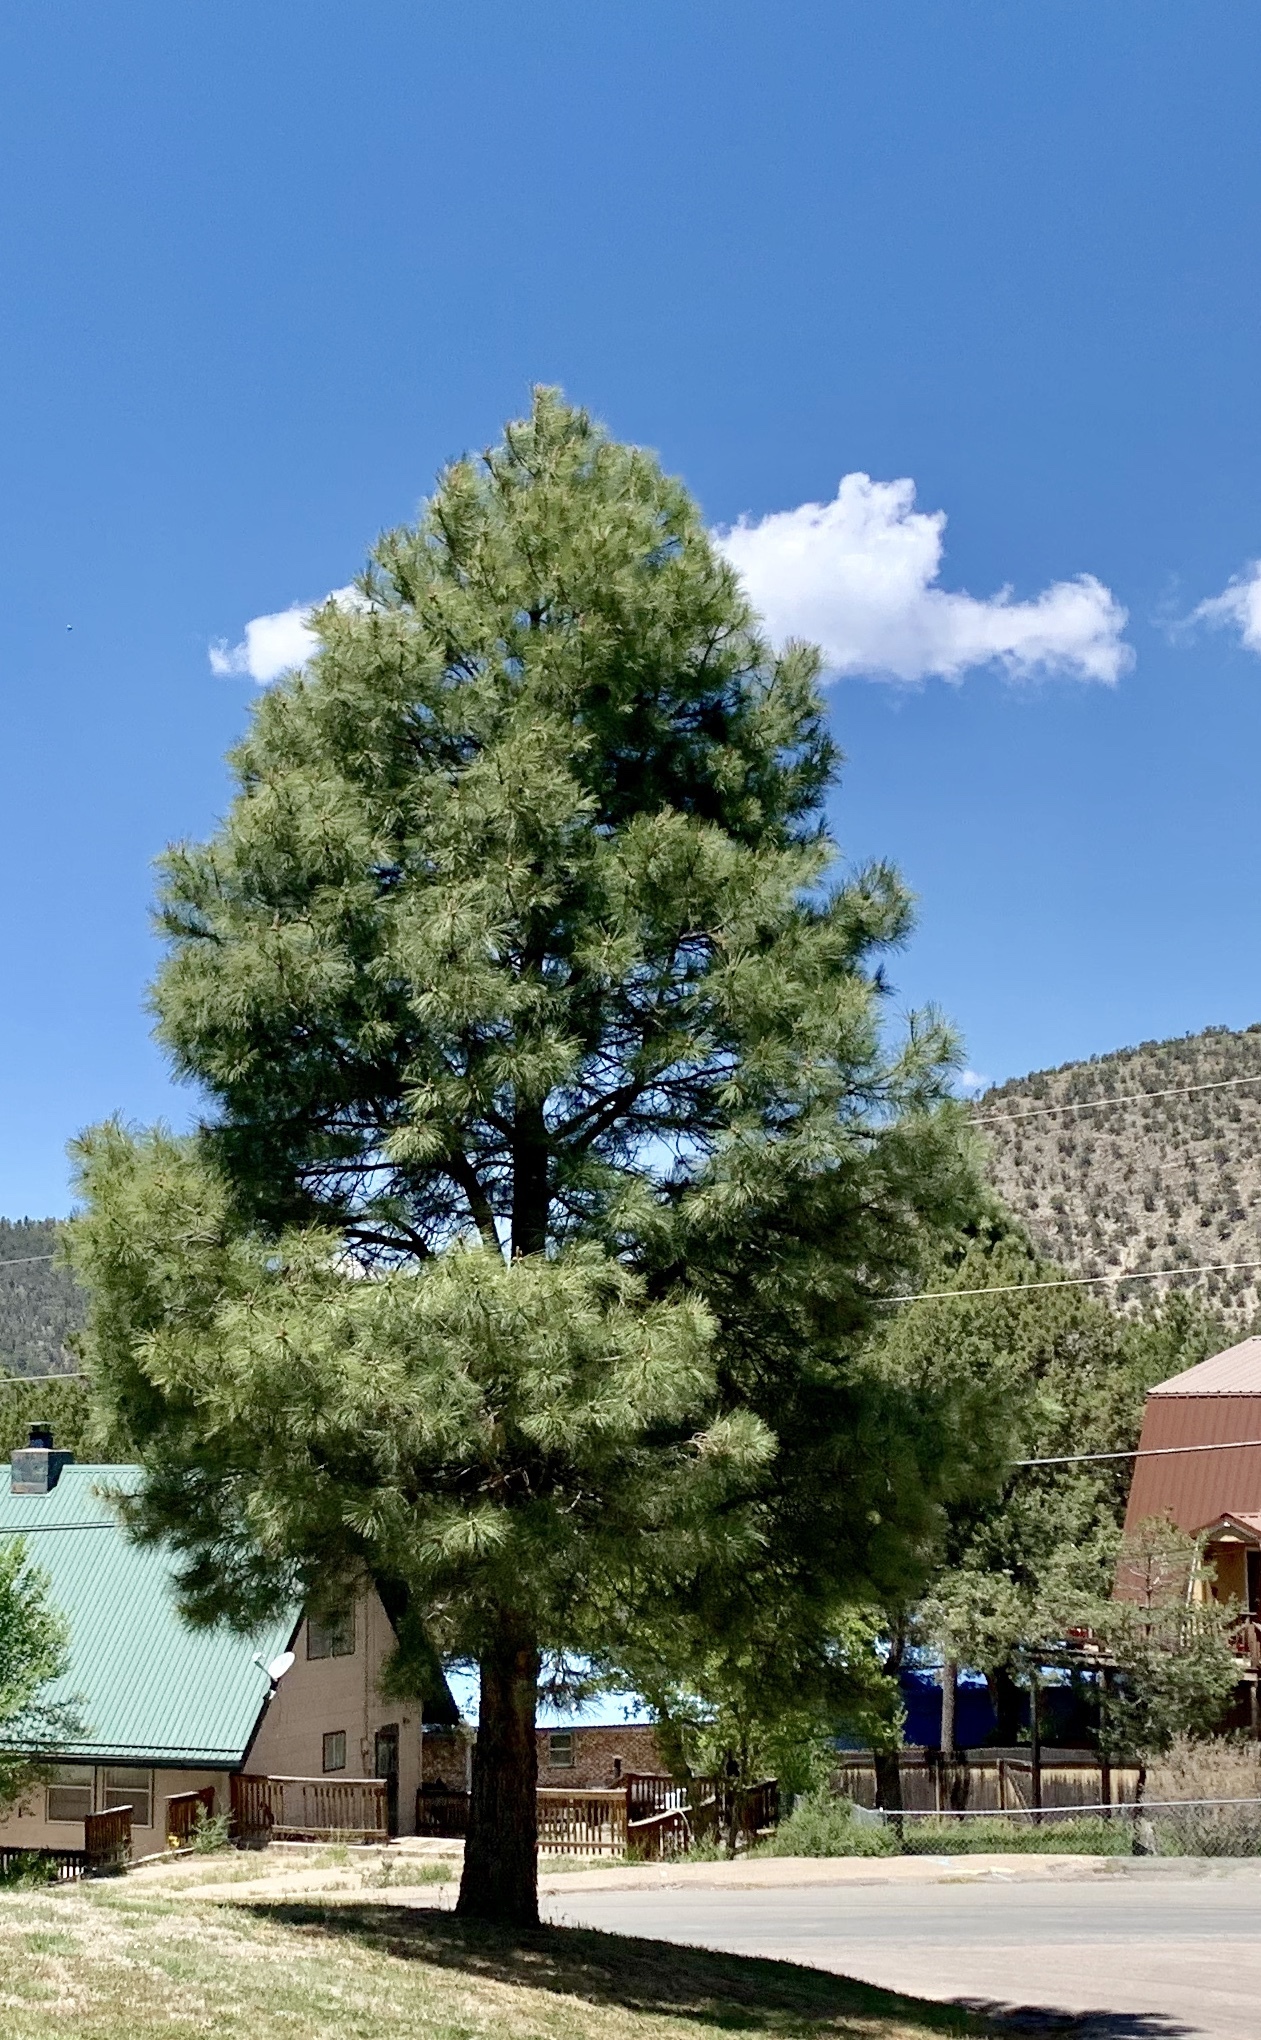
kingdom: Plantae
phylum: Tracheophyta
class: Pinopsida
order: Pinales
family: Pinaceae
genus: Pinus
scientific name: Pinus ponderosa
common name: Western yellow-pine
